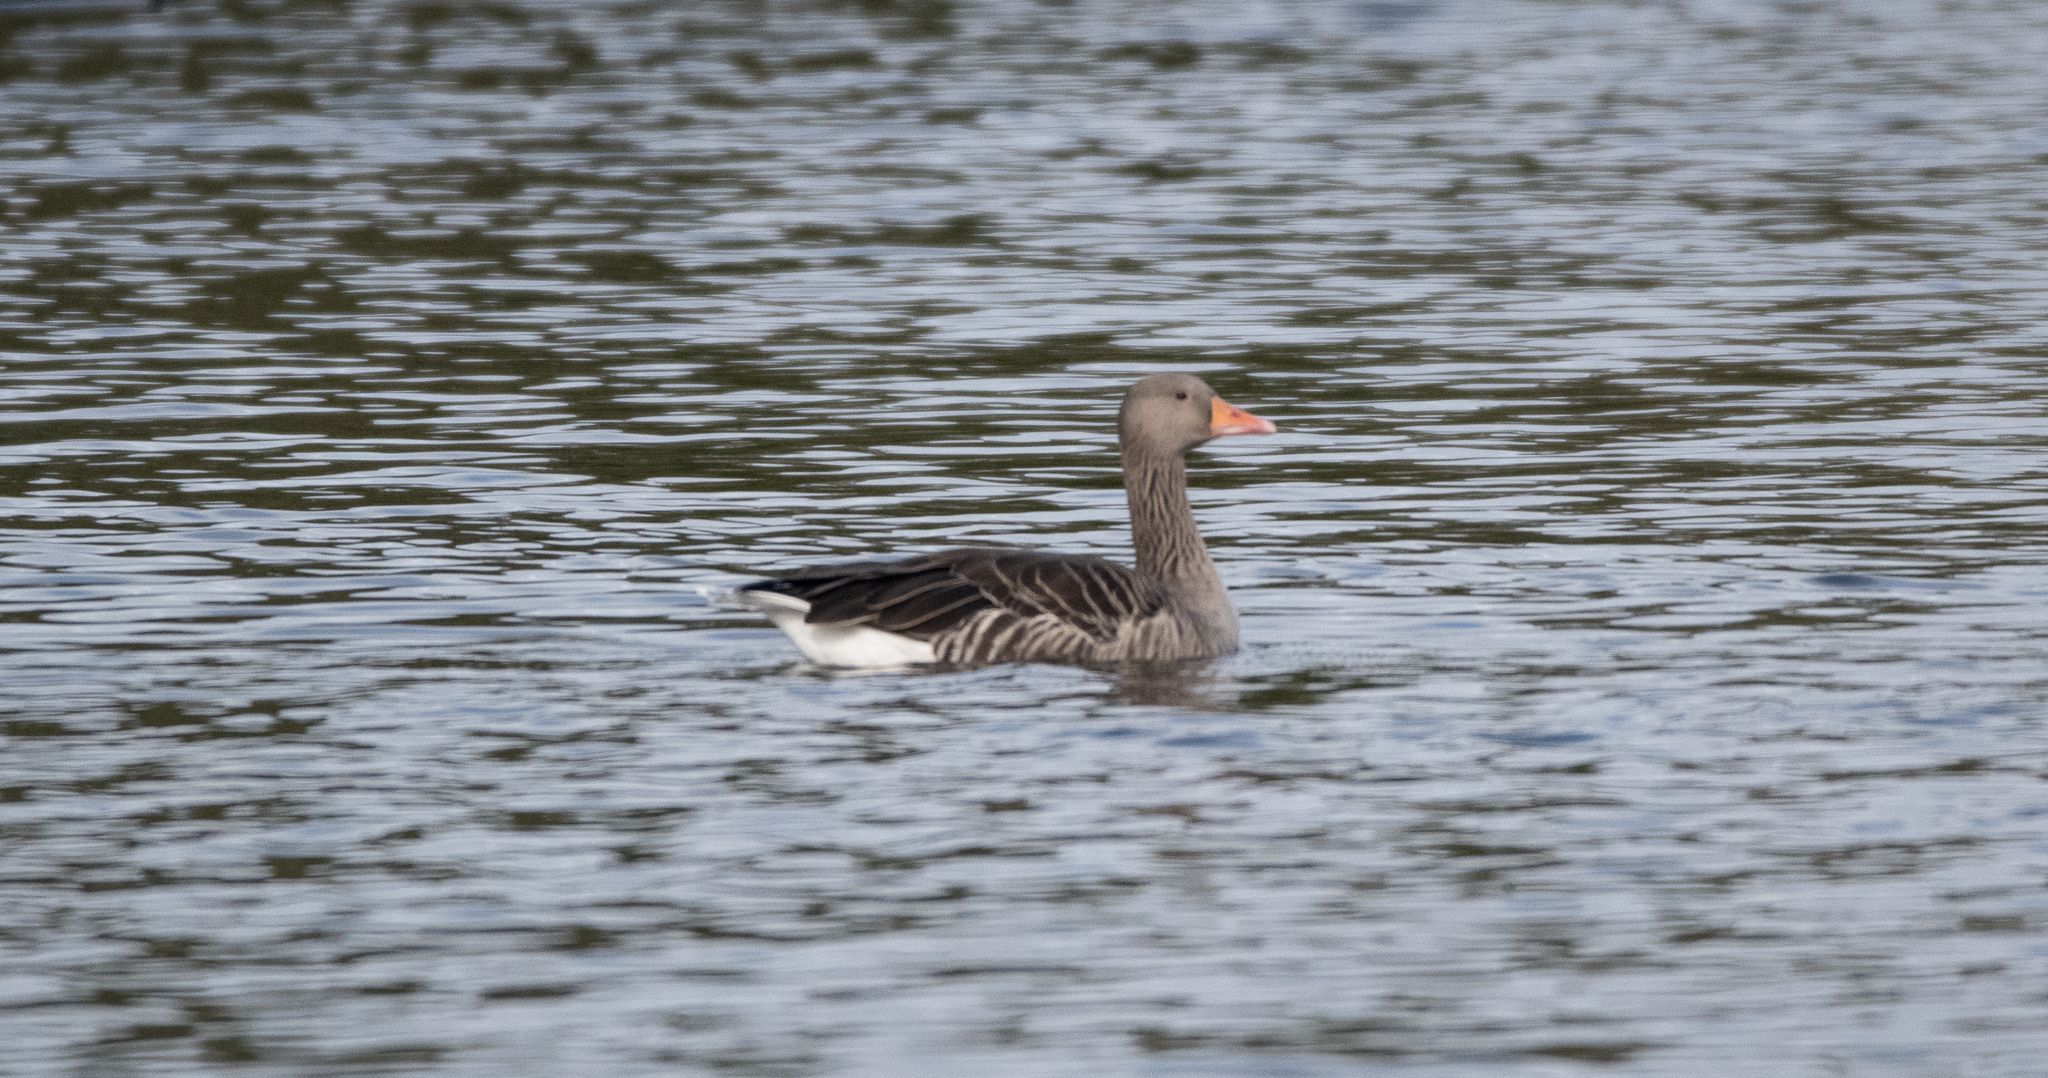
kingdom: Animalia
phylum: Chordata
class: Aves
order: Anseriformes
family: Anatidae
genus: Anser
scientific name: Anser anser
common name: Greylag goose
